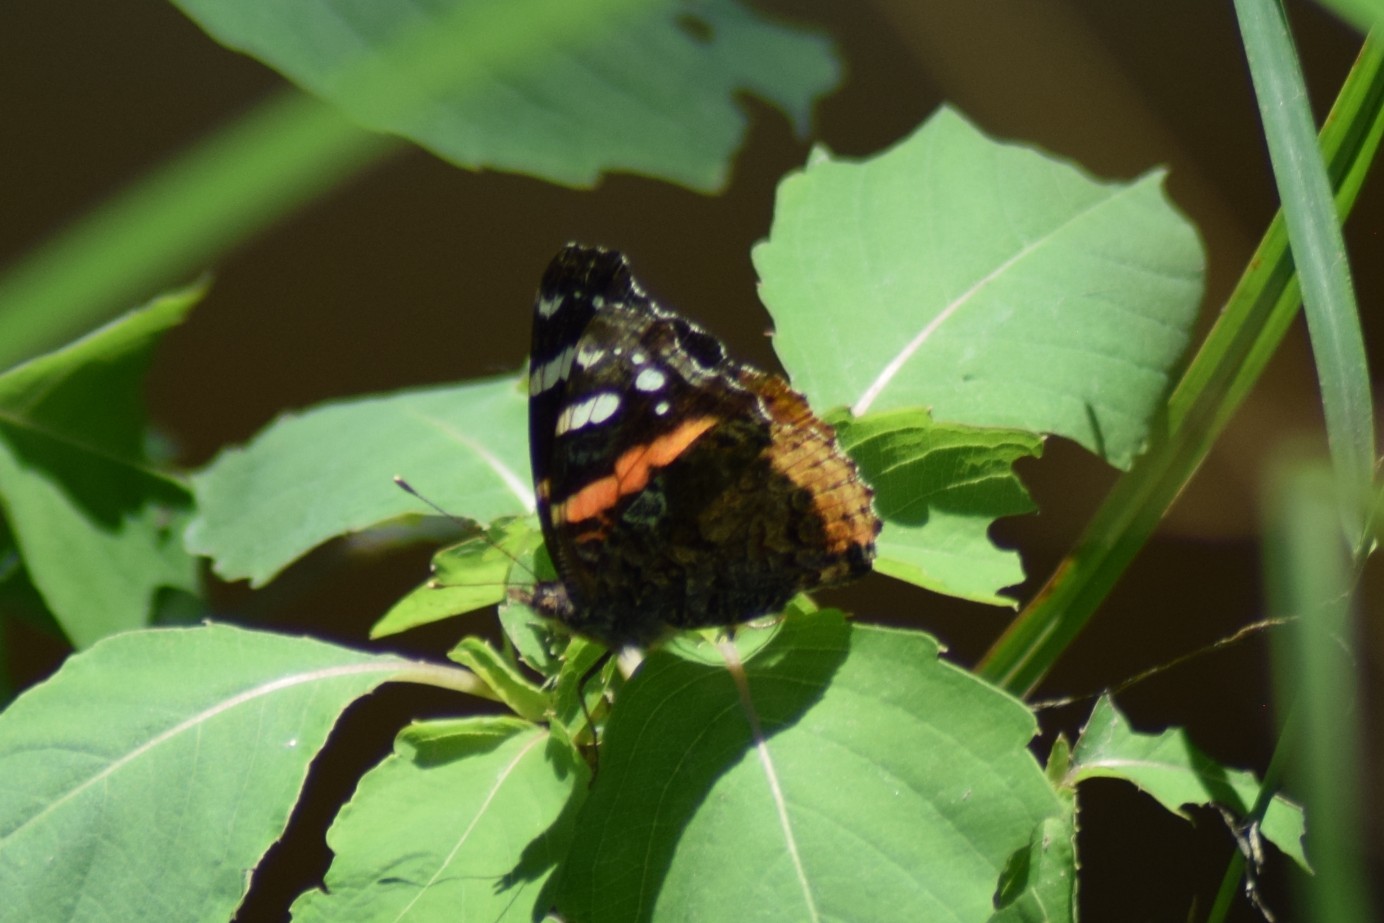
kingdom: Animalia
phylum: Arthropoda
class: Insecta
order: Lepidoptera
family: Nymphalidae
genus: Vanessa
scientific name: Vanessa atalanta
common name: Red admiral
